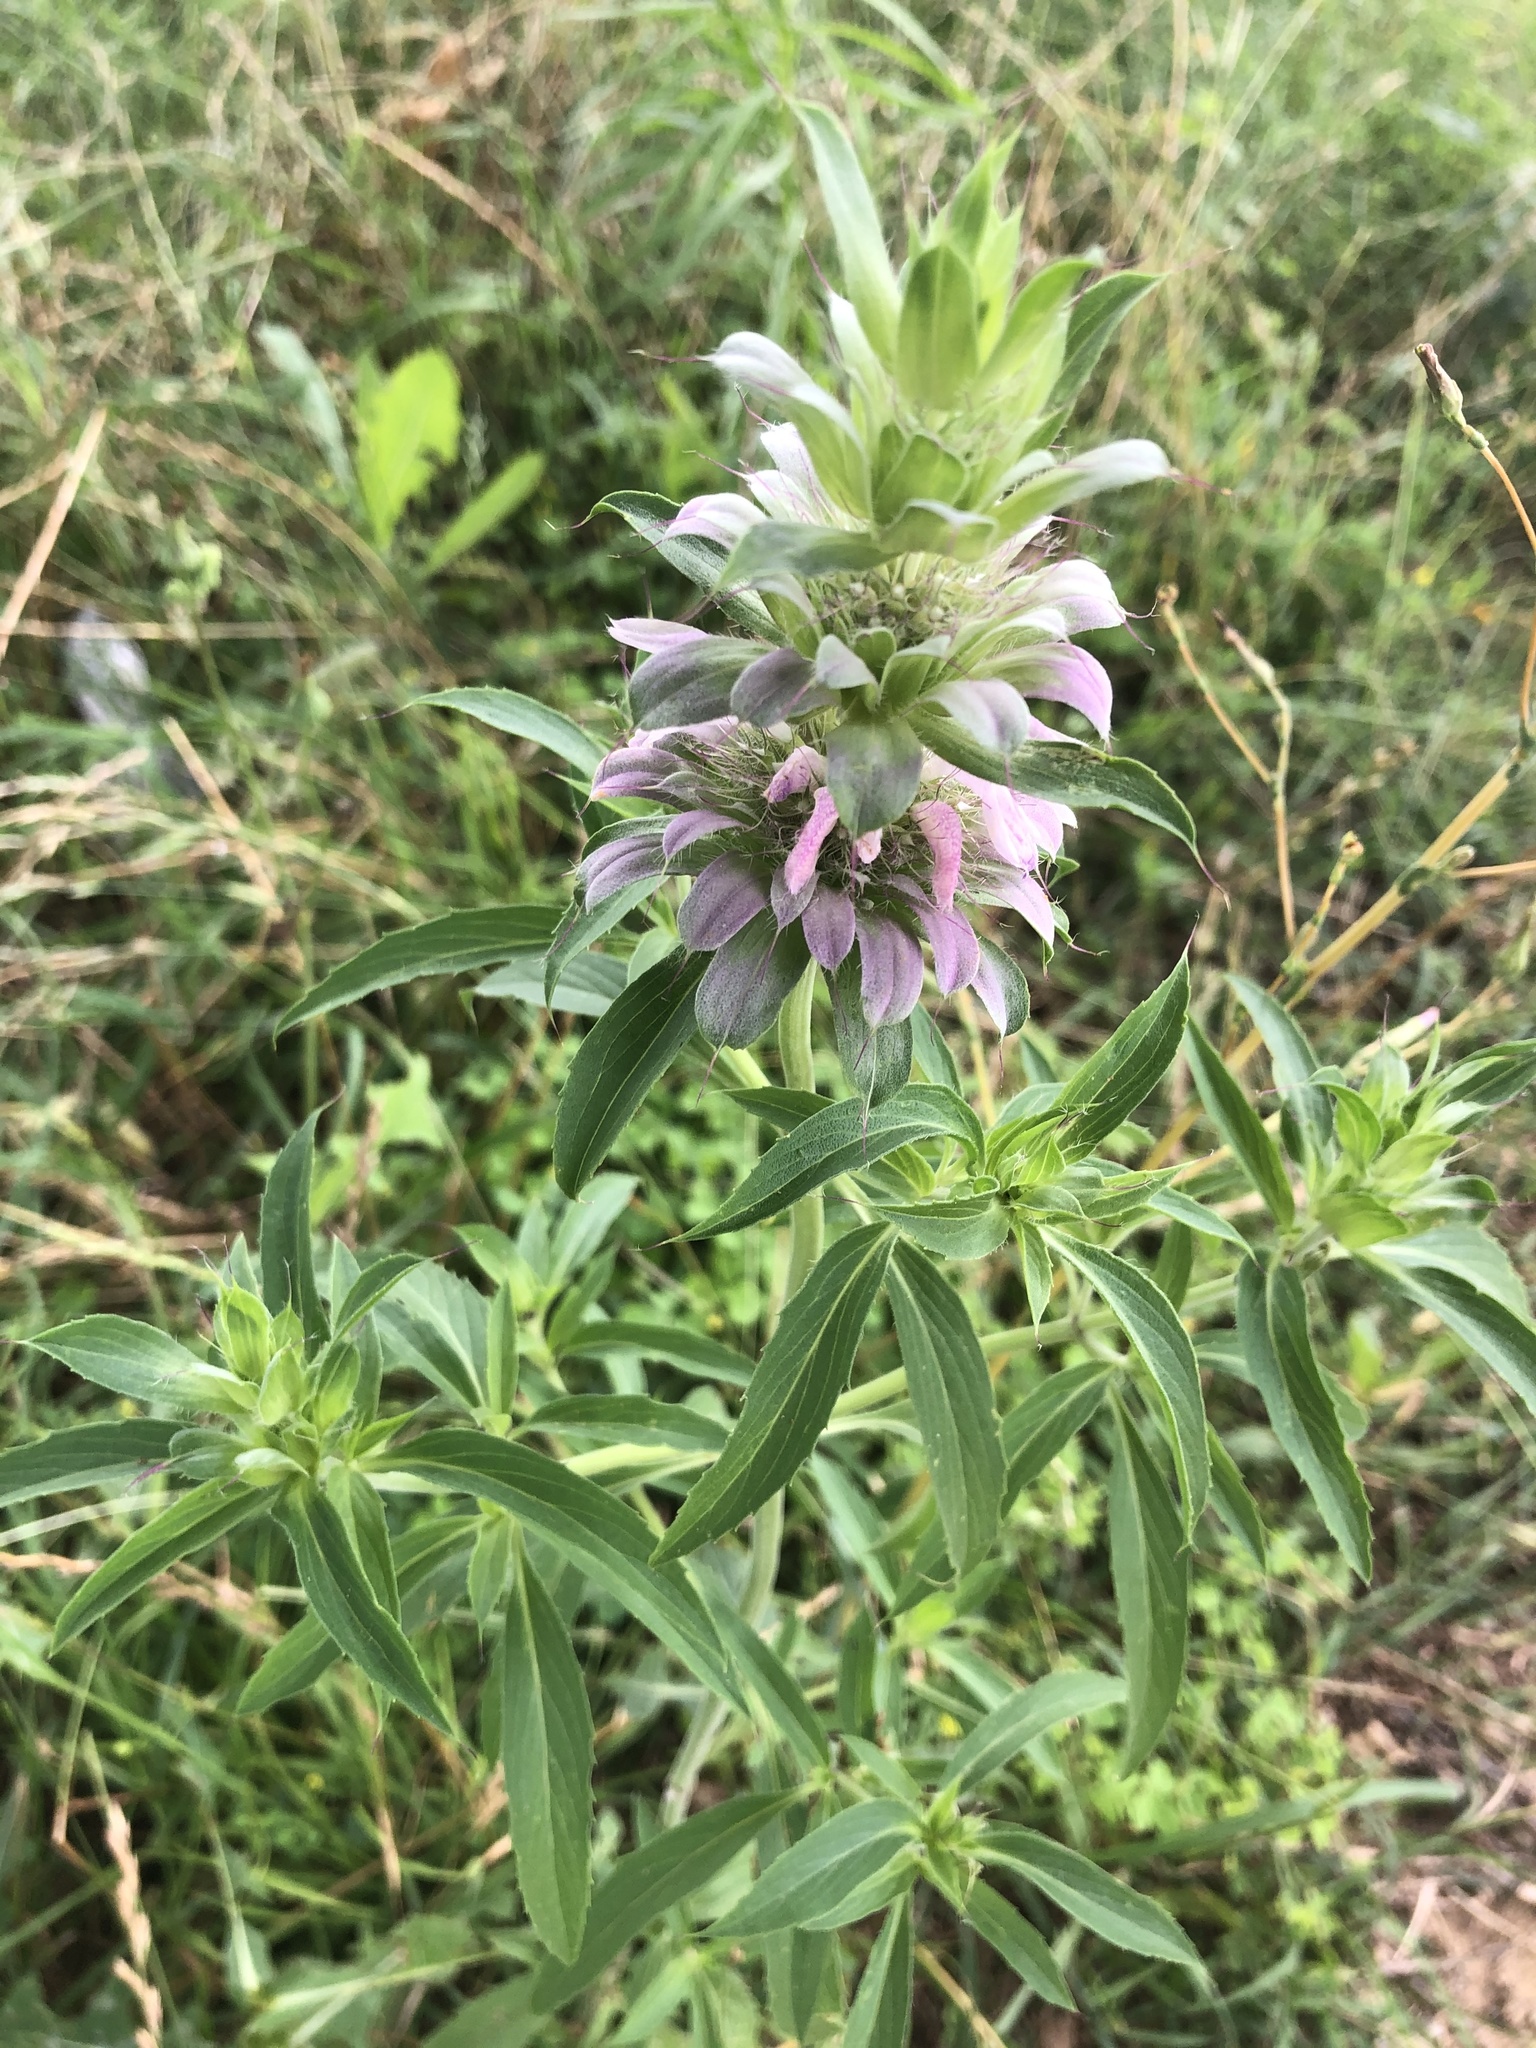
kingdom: Plantae
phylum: Tracheophyta
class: Magnoliopsida
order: Lamiales
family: Lamiaceae
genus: Monarda
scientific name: Monarda citriodora
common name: Lemon beebalm
